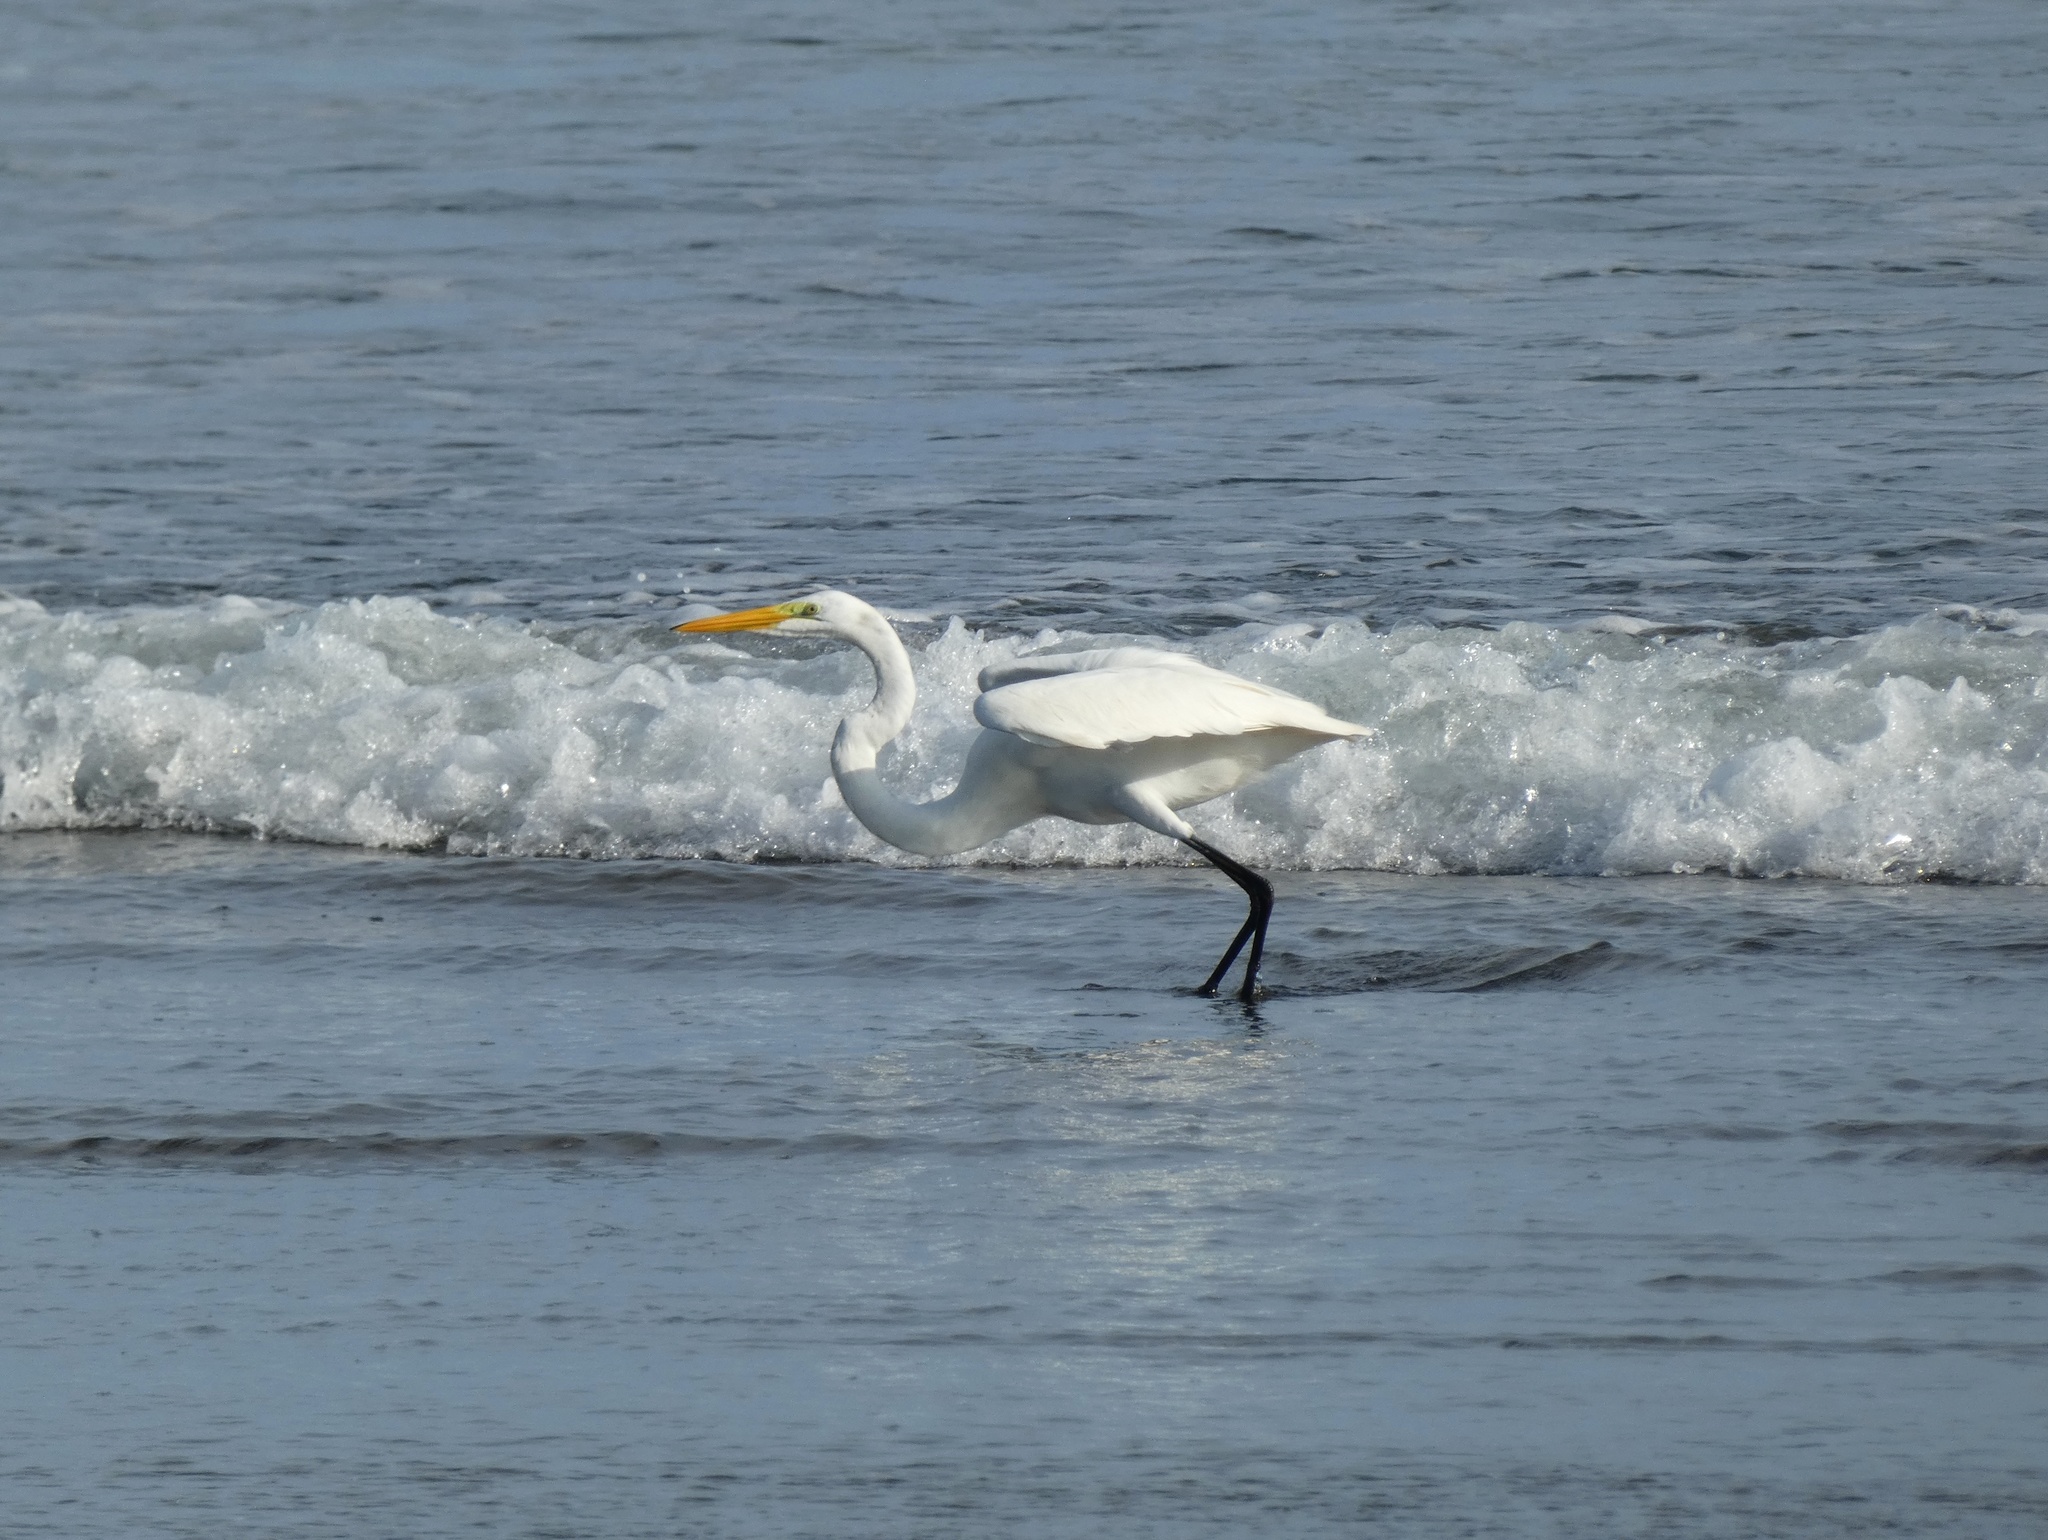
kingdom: Animalia
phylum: Chordata
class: Aves
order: Pelecaniformes
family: Ardeidae
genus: Ardea
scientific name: Ardea alba
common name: Great egret
